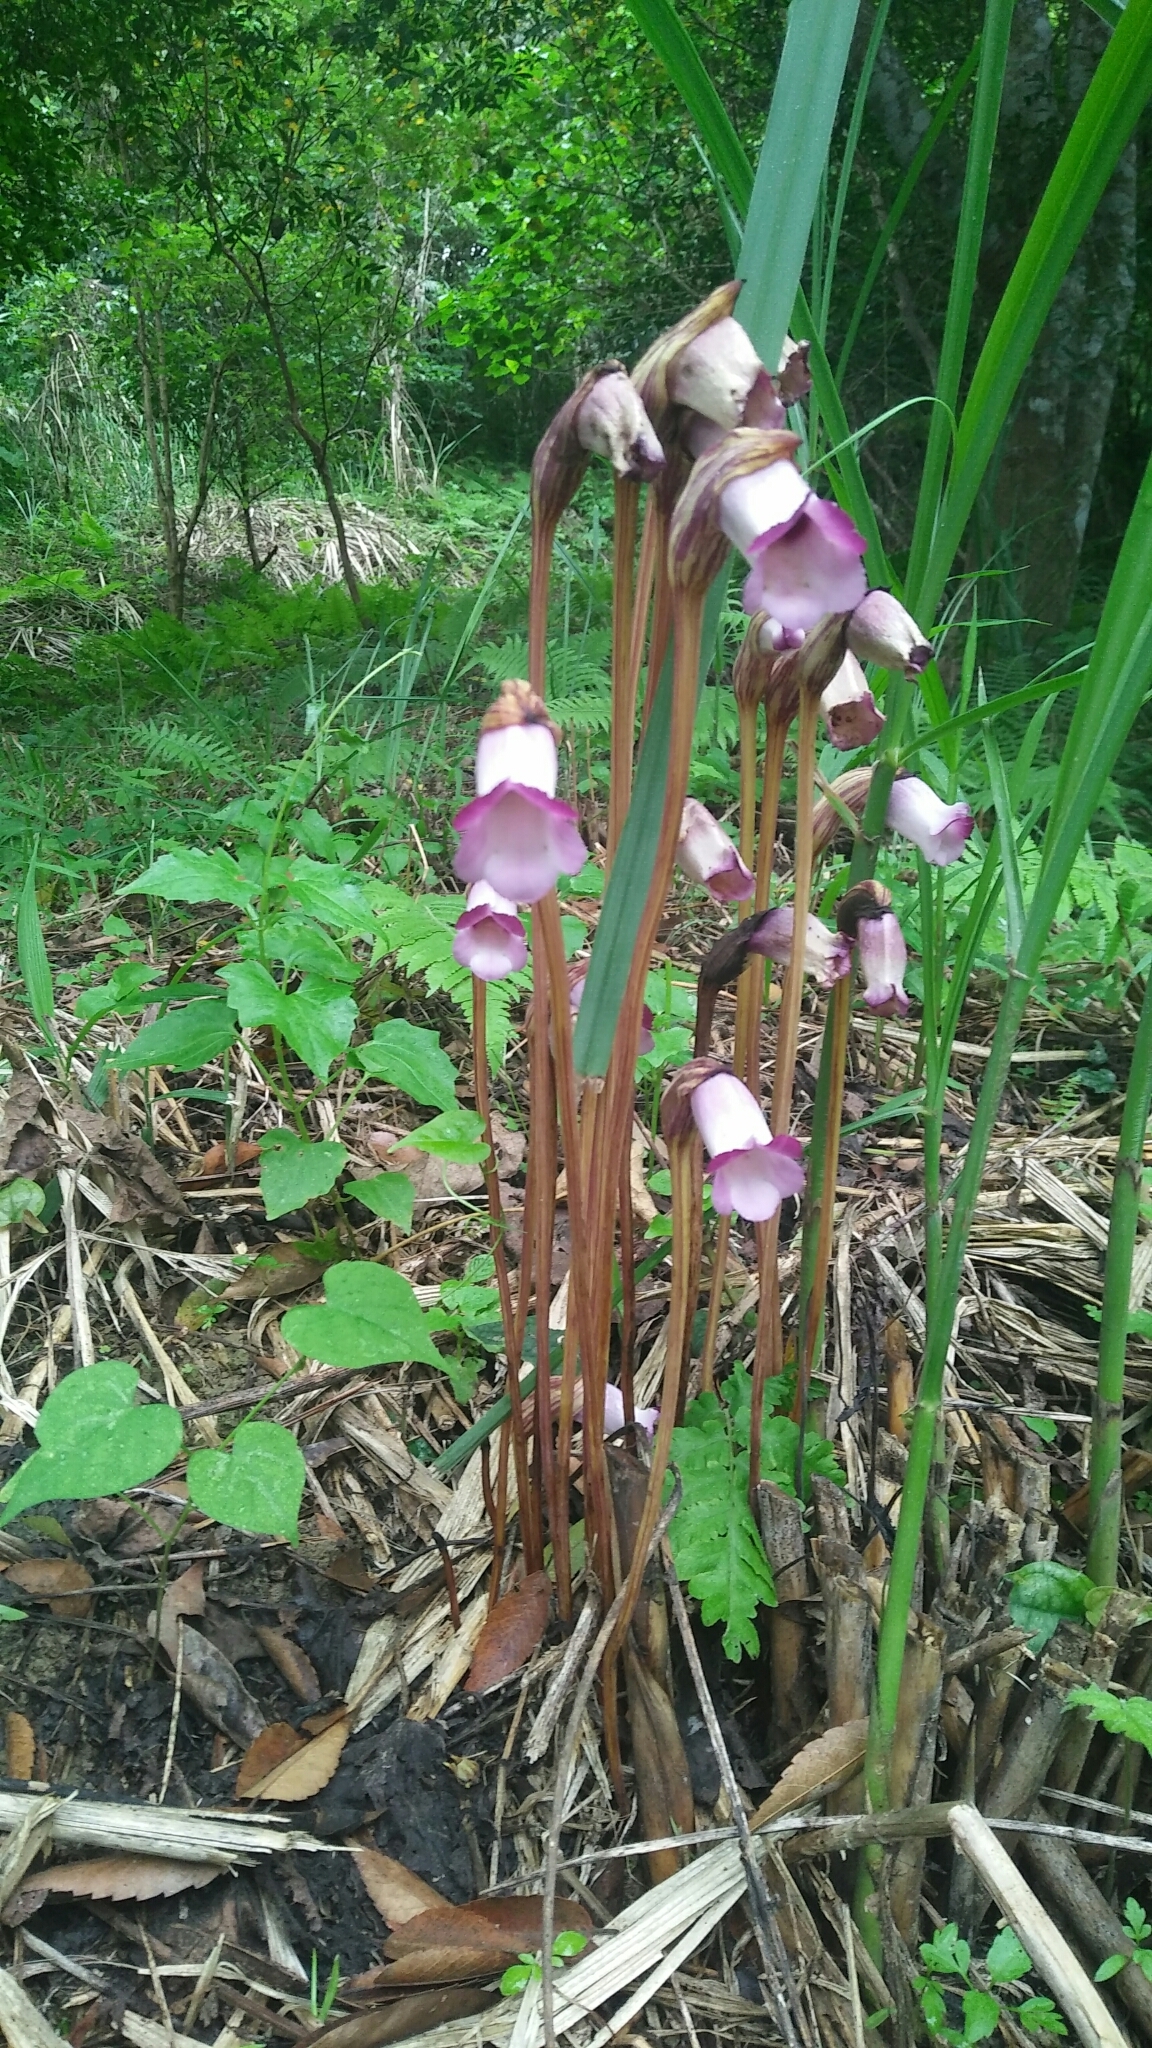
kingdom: Plantae
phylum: Tracheophyta
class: Magnoliopsida
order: Lamiales
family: Orobanchaceae
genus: Aeginetia
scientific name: Aeginetia indica
